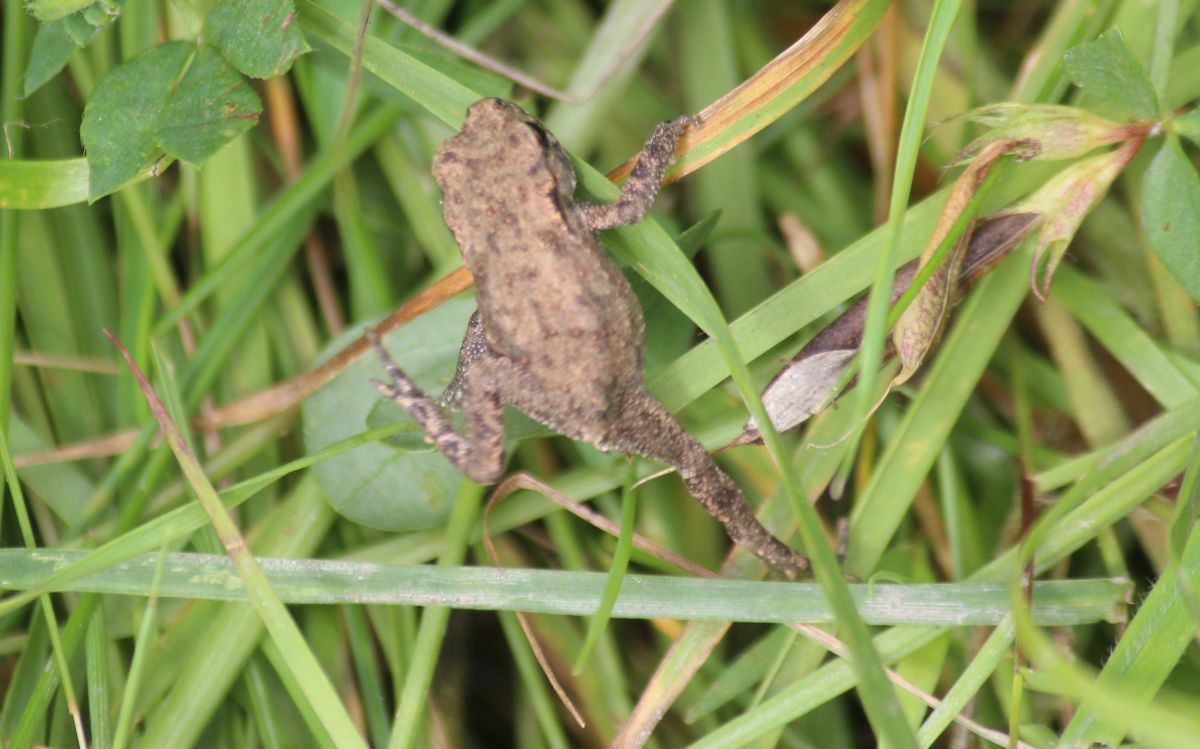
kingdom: Animalia
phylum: Chordata
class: Amphibia
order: Anura
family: Bufonidae
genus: Bufo
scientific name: Bufo bufo
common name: Common toad
